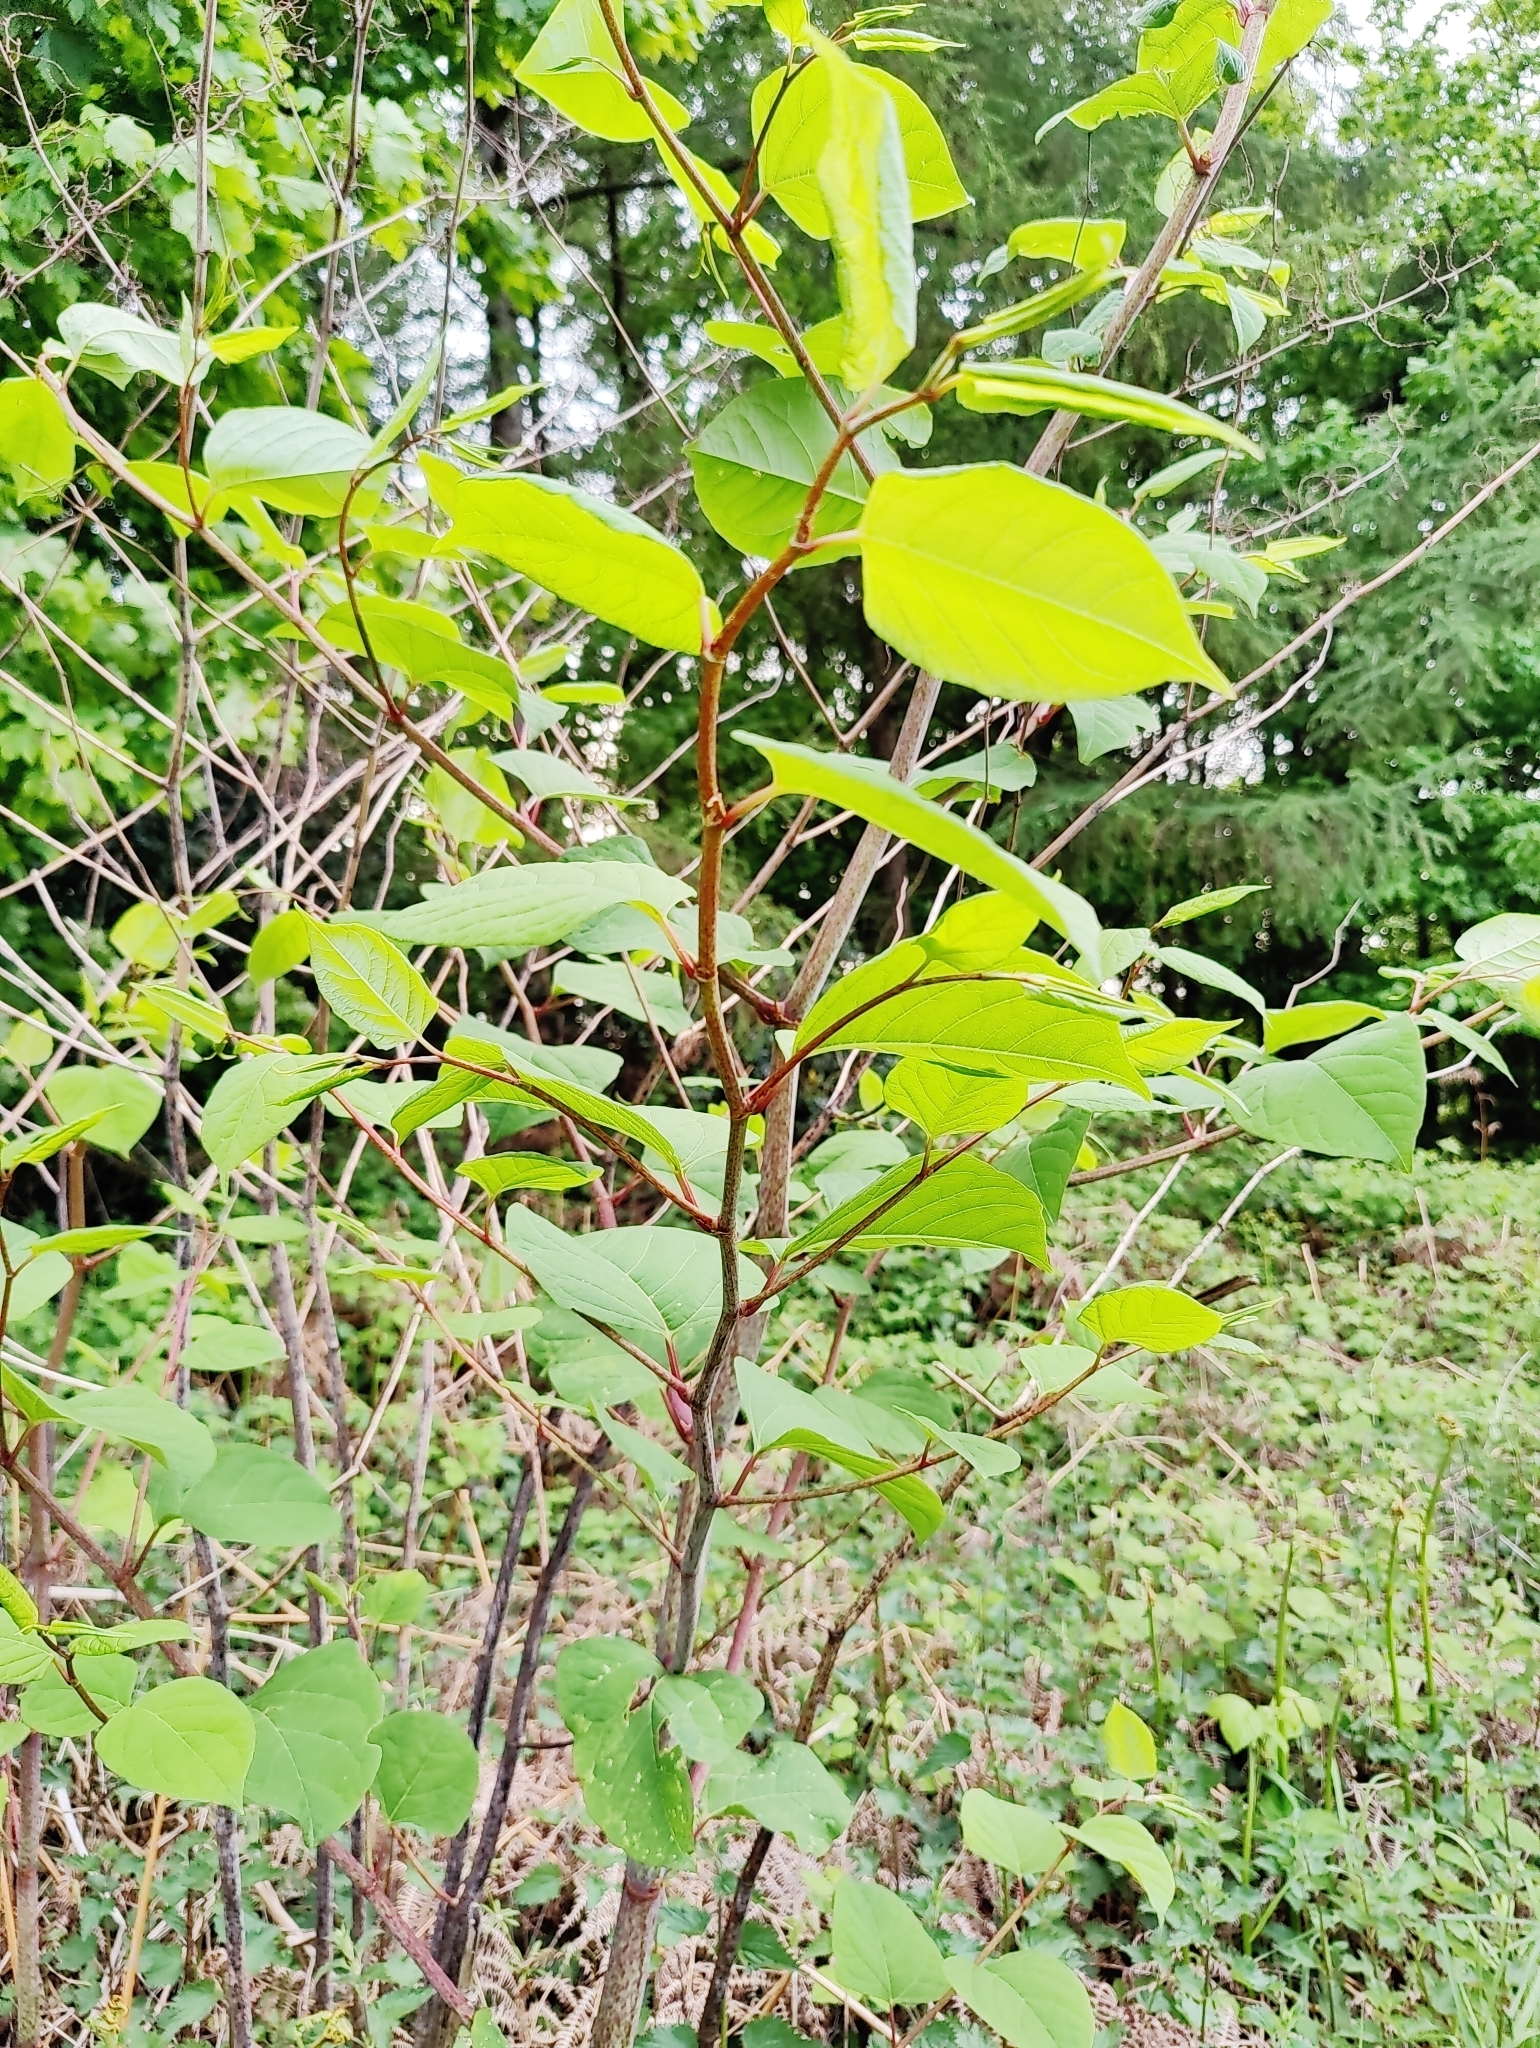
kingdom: Plantae
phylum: Tracheophyta
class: Magnoliopsida
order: Caryophyllales
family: Polygonaceae
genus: Reynoutria
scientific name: Reynoutria japonica
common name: Japanese knotweed
